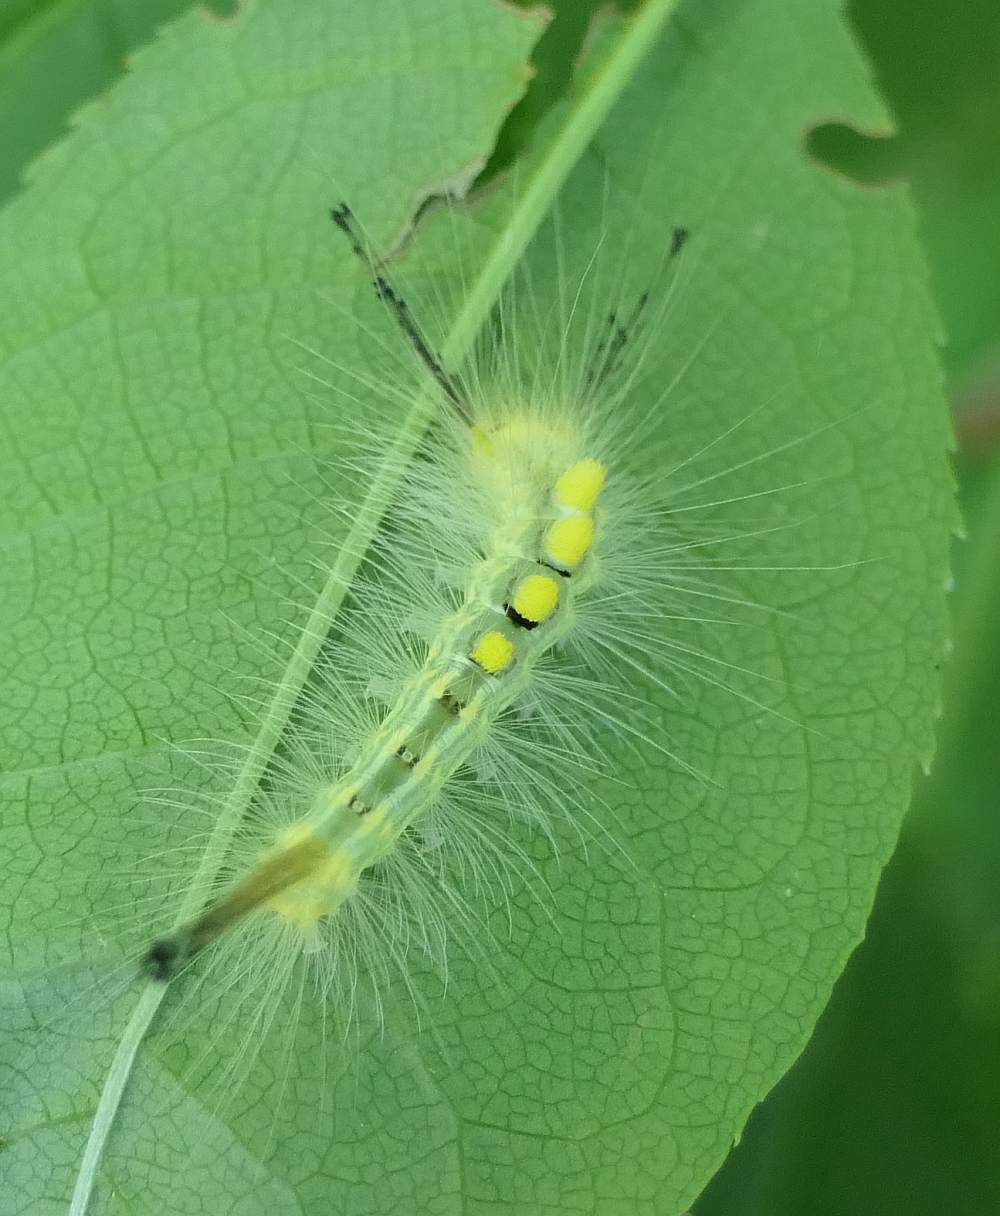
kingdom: Animalia
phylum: Arthropoda
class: Insecta
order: Lepidoptera
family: Erebidae
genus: Orgyia
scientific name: Orgyia definita
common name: Definite tussock moth
